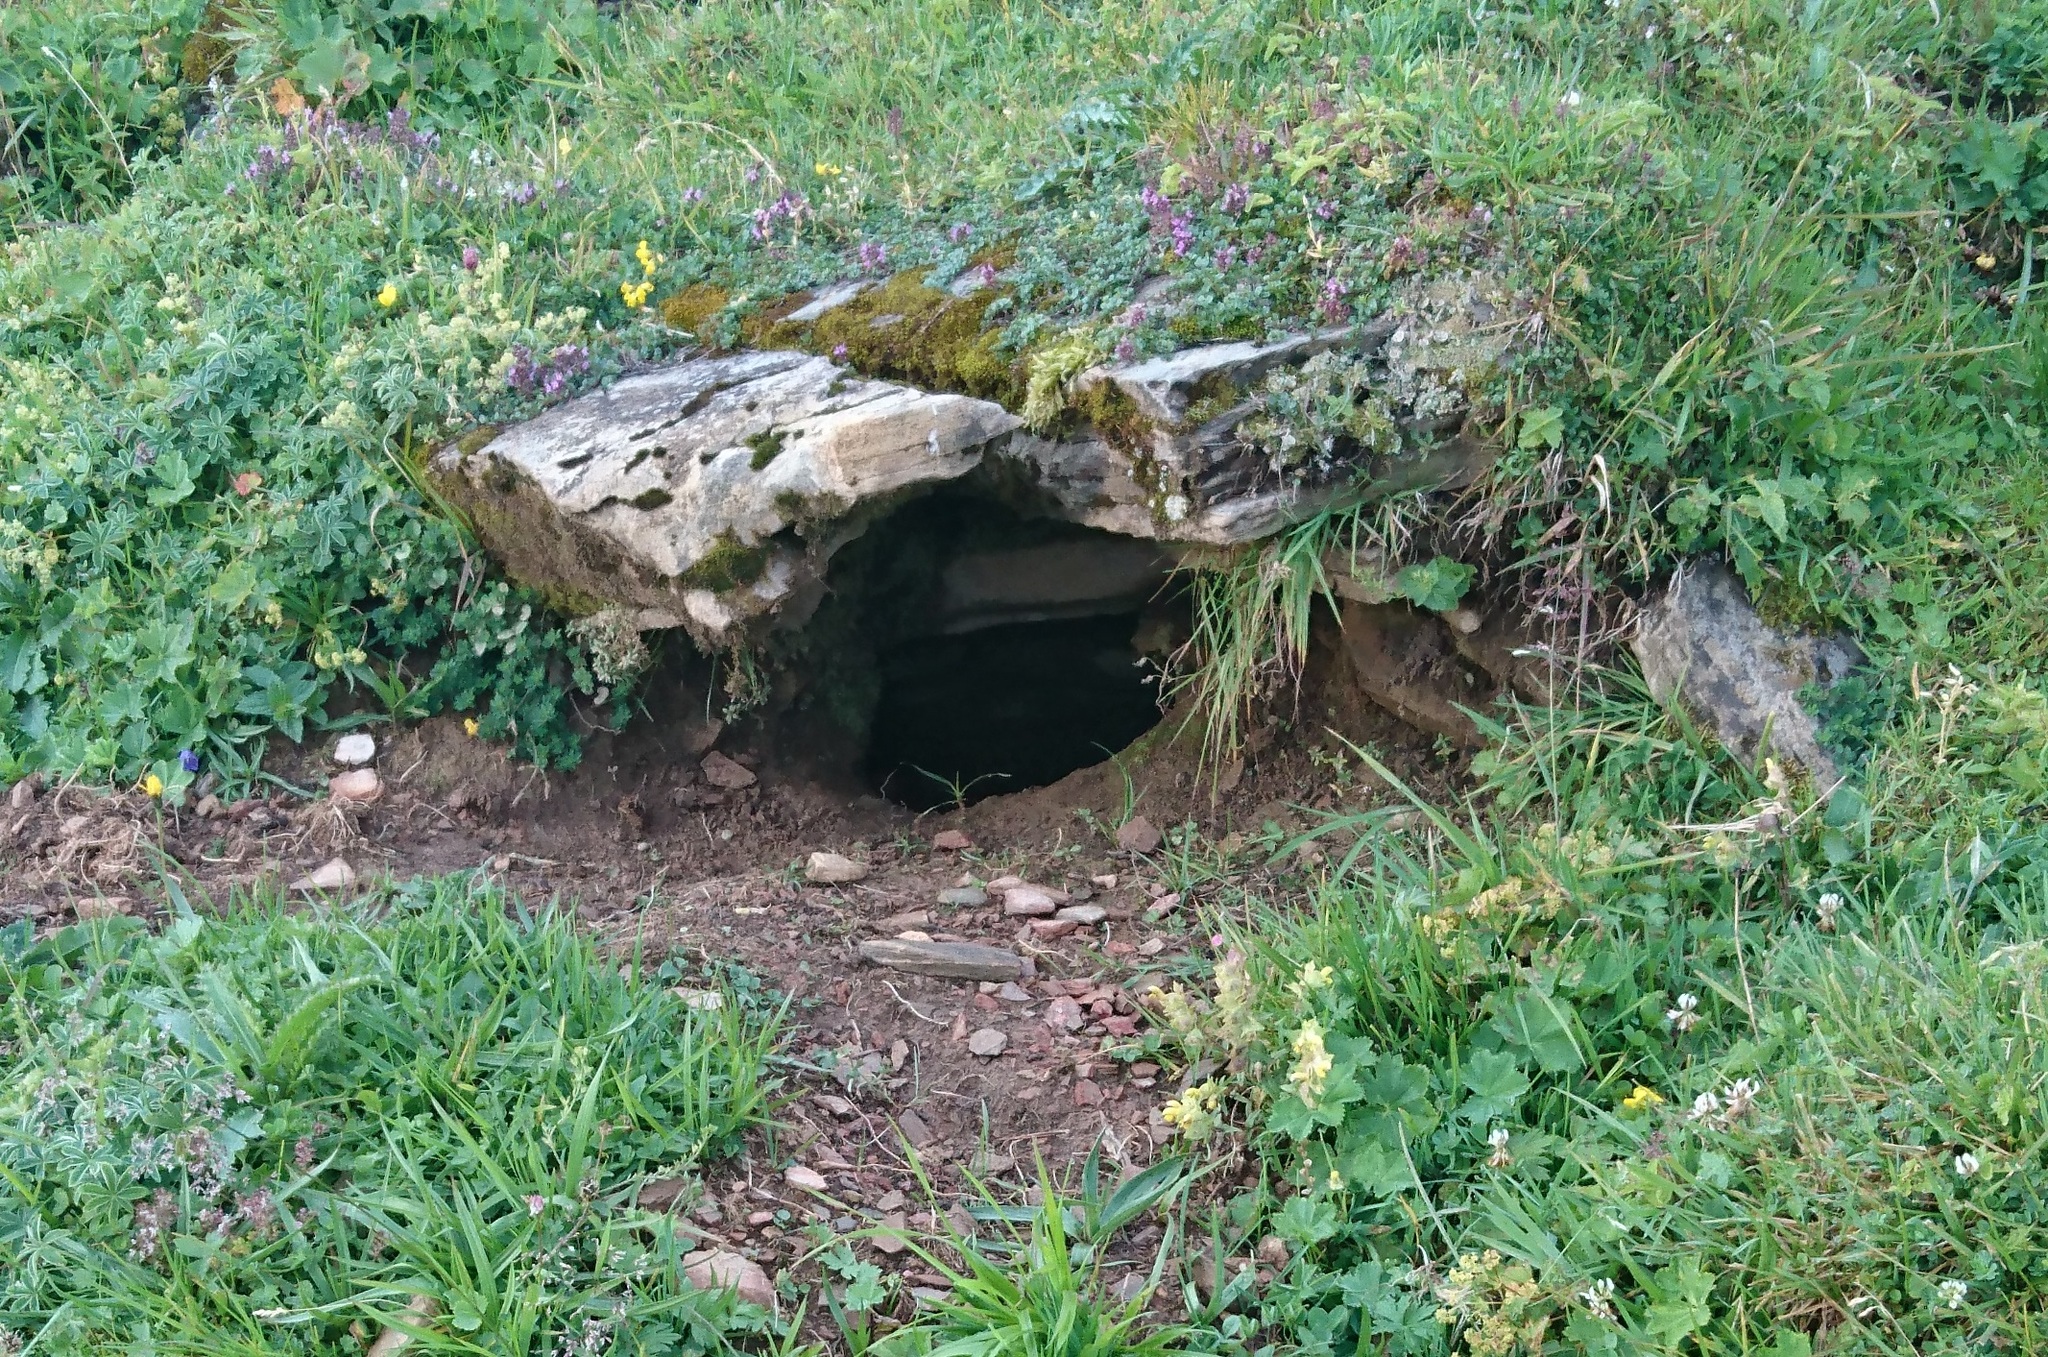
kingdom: Animalia
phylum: Chordata
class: Mammalia
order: Rodentia
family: Sciuridae
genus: Marmota
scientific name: Marmota marmota
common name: Alpine marmot
